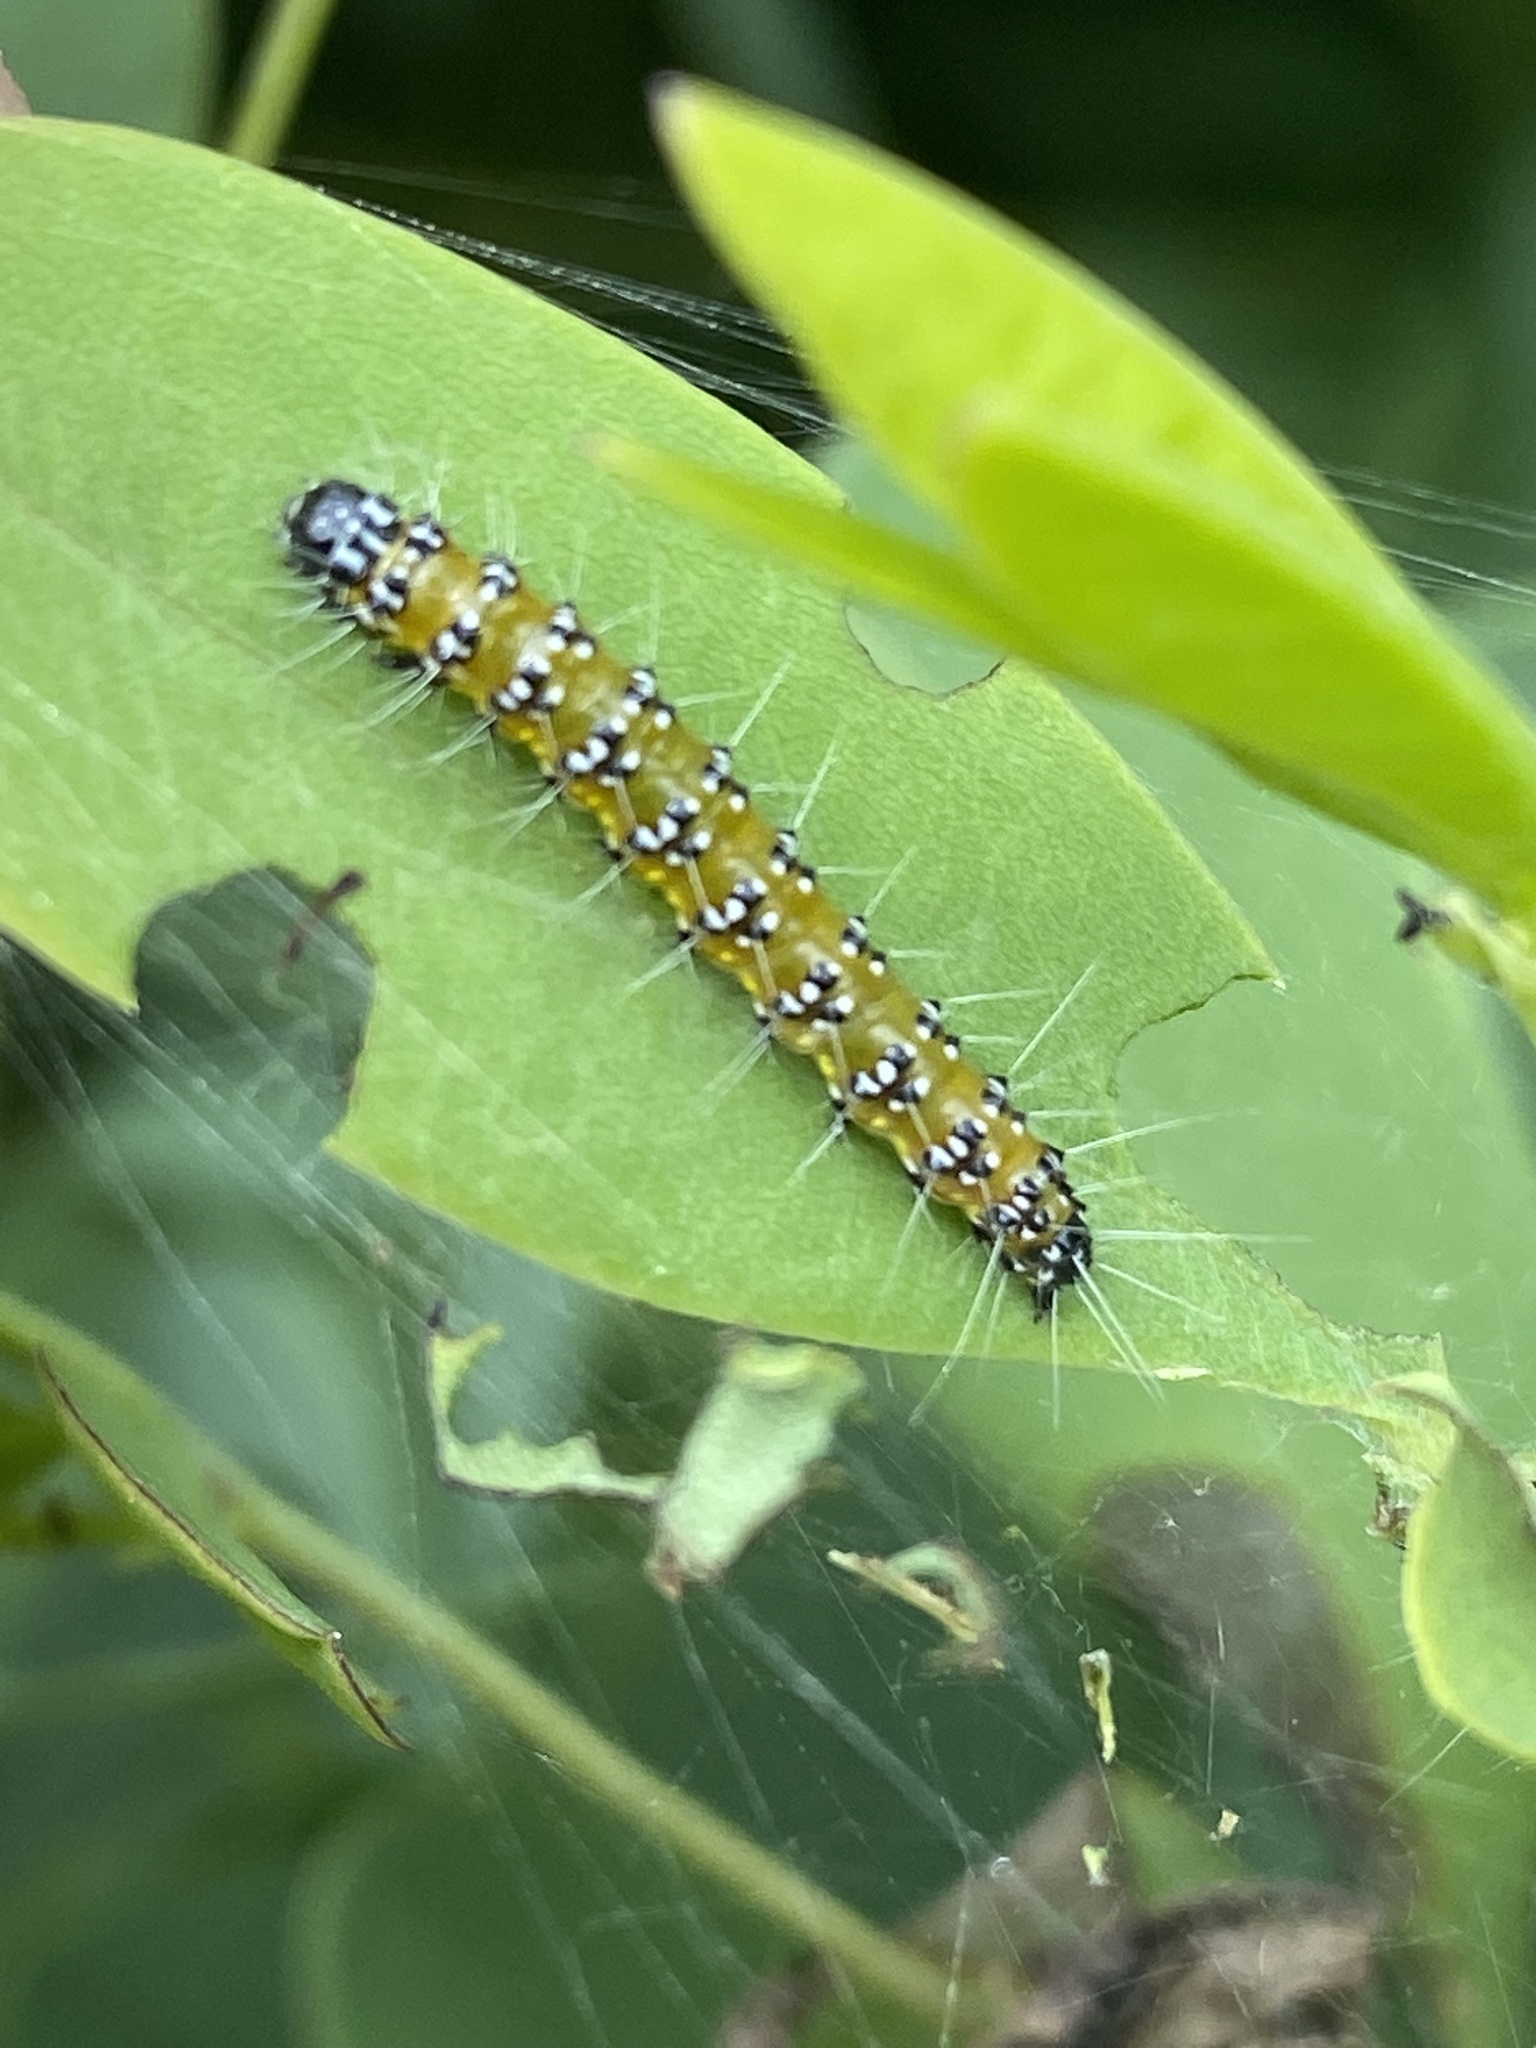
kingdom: Animalia
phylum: Arthropoda
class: Insecta
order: Lepidoptera
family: Crambidae
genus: Uresiphita
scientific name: Uresiphita reversalis
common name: Genista broom moth
